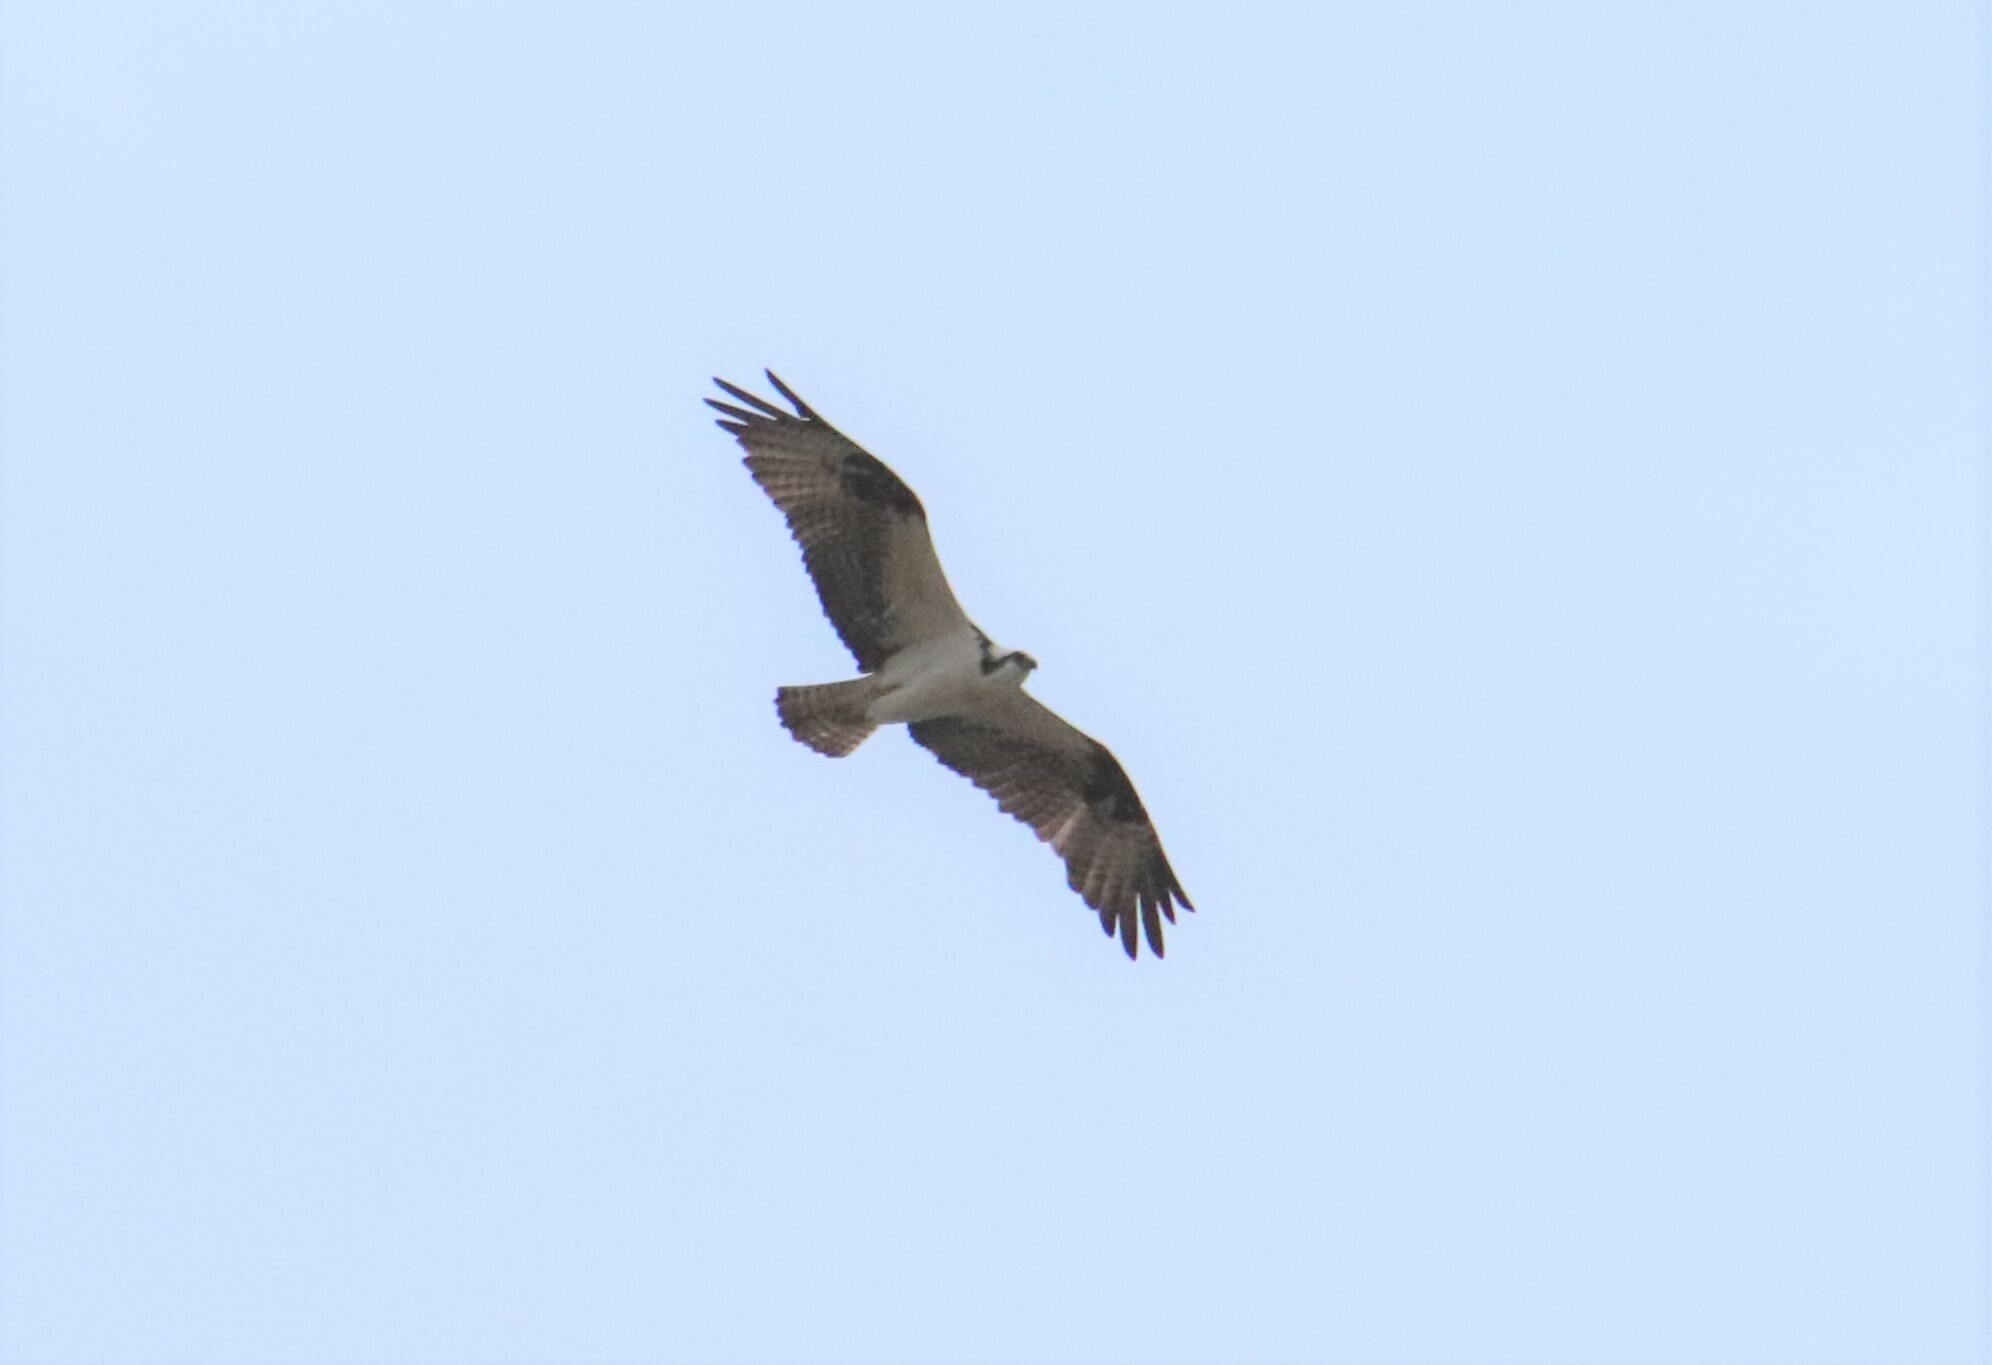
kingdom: Animalia
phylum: Chordata
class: Aves
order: Accipitriformes
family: Pandionidae
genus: Pandion
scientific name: Pandion haliaetus
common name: Osprey
